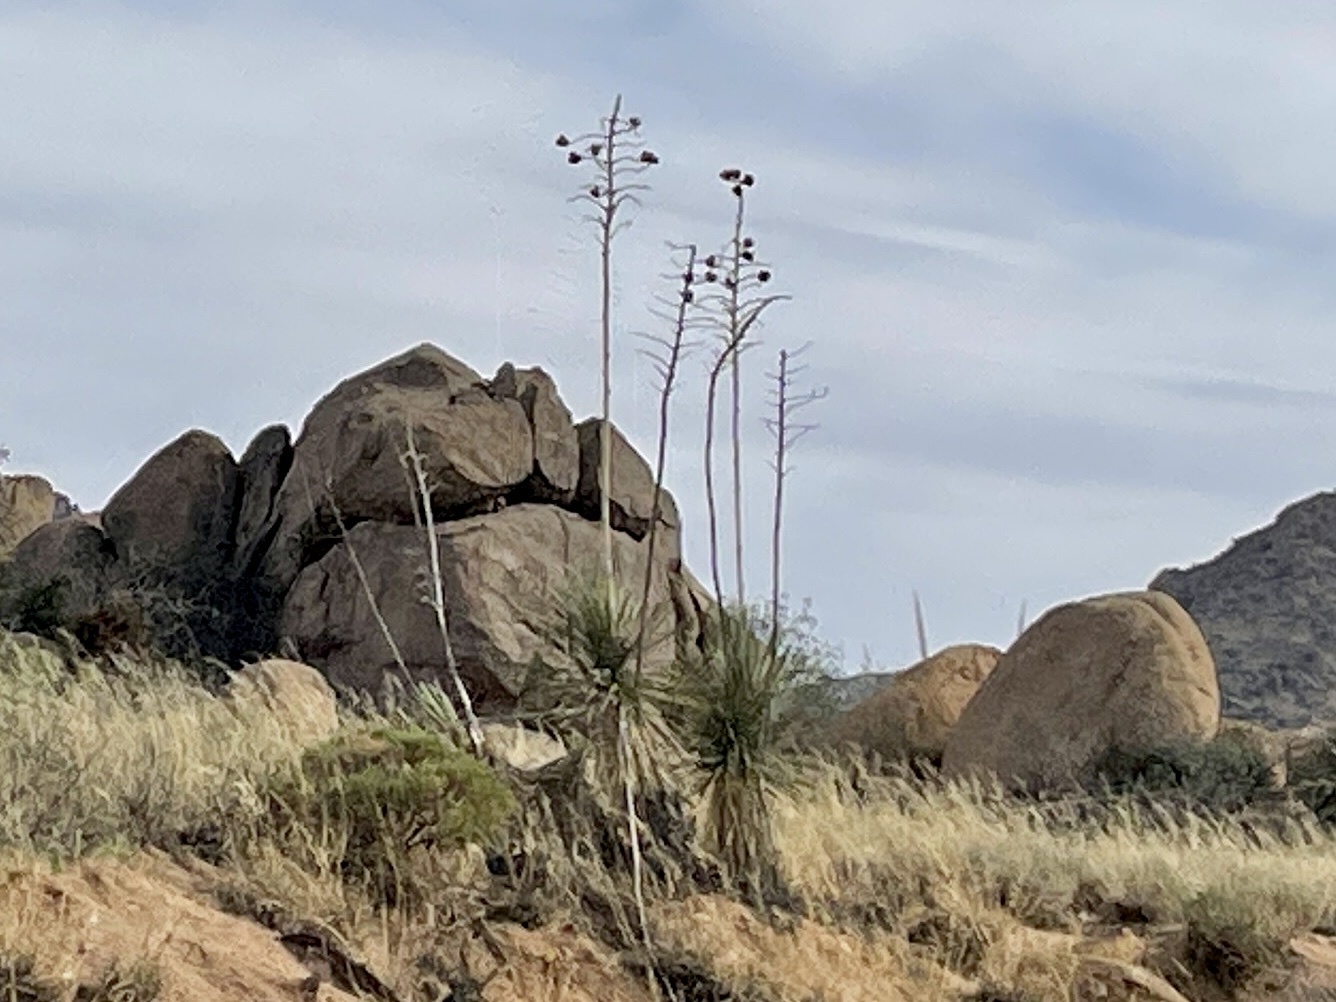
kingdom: Plantae
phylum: Tracheophyta
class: Liliopsida
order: Asparagales
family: Asparagaceae
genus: Yucca
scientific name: Yucca elata
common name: Palmella
